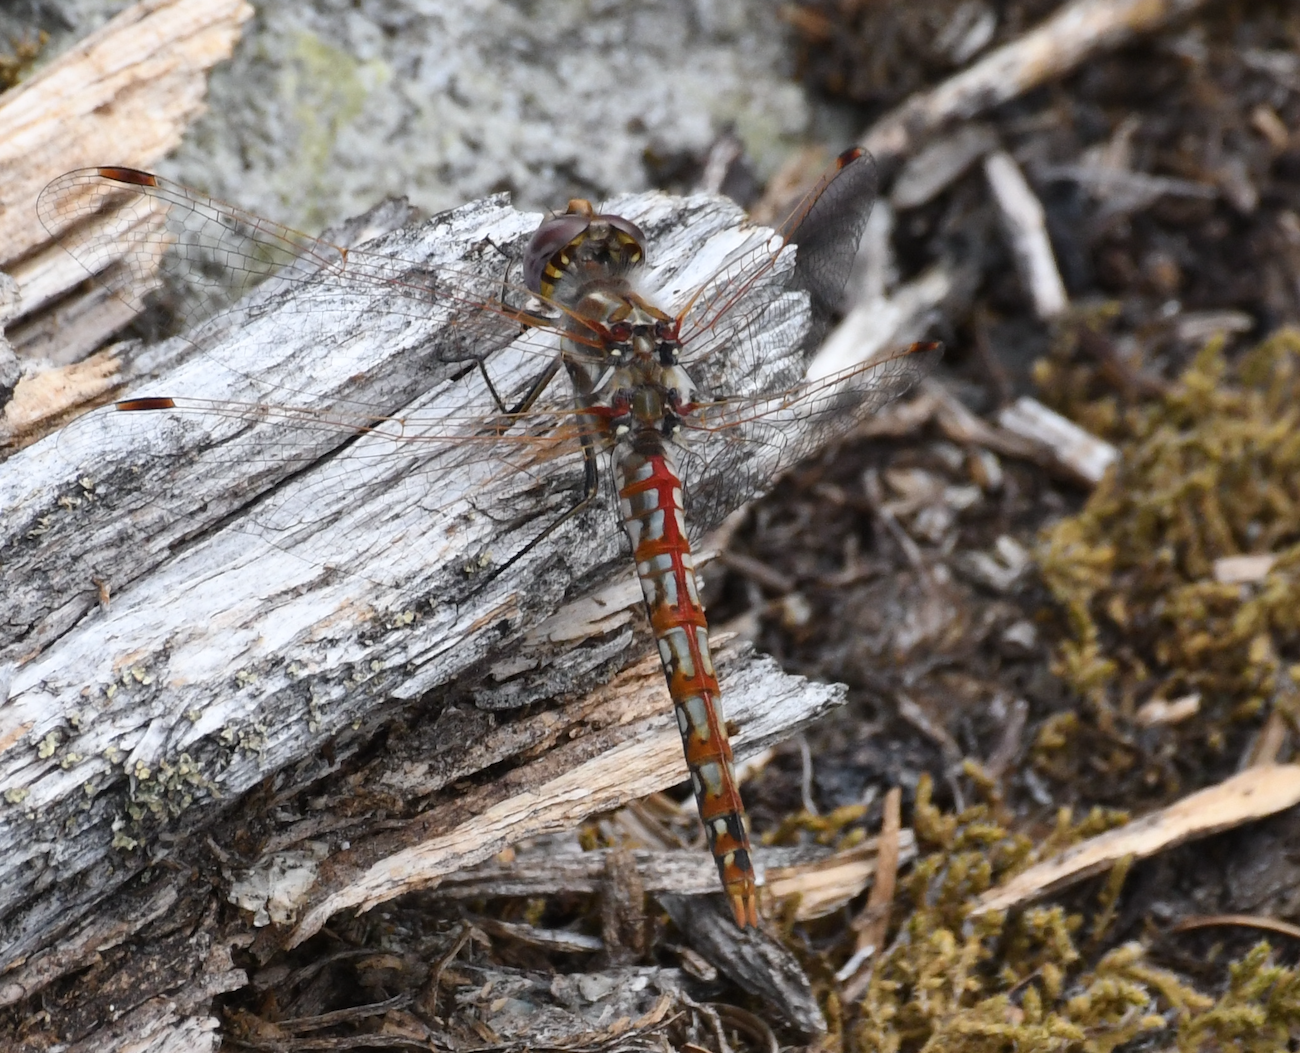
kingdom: Animalia
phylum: Arthropoda
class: Insecta
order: Odonata
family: Libellulidae
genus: Sympetrum
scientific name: Sympetrum corruptum
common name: Variegated meadowhawk
